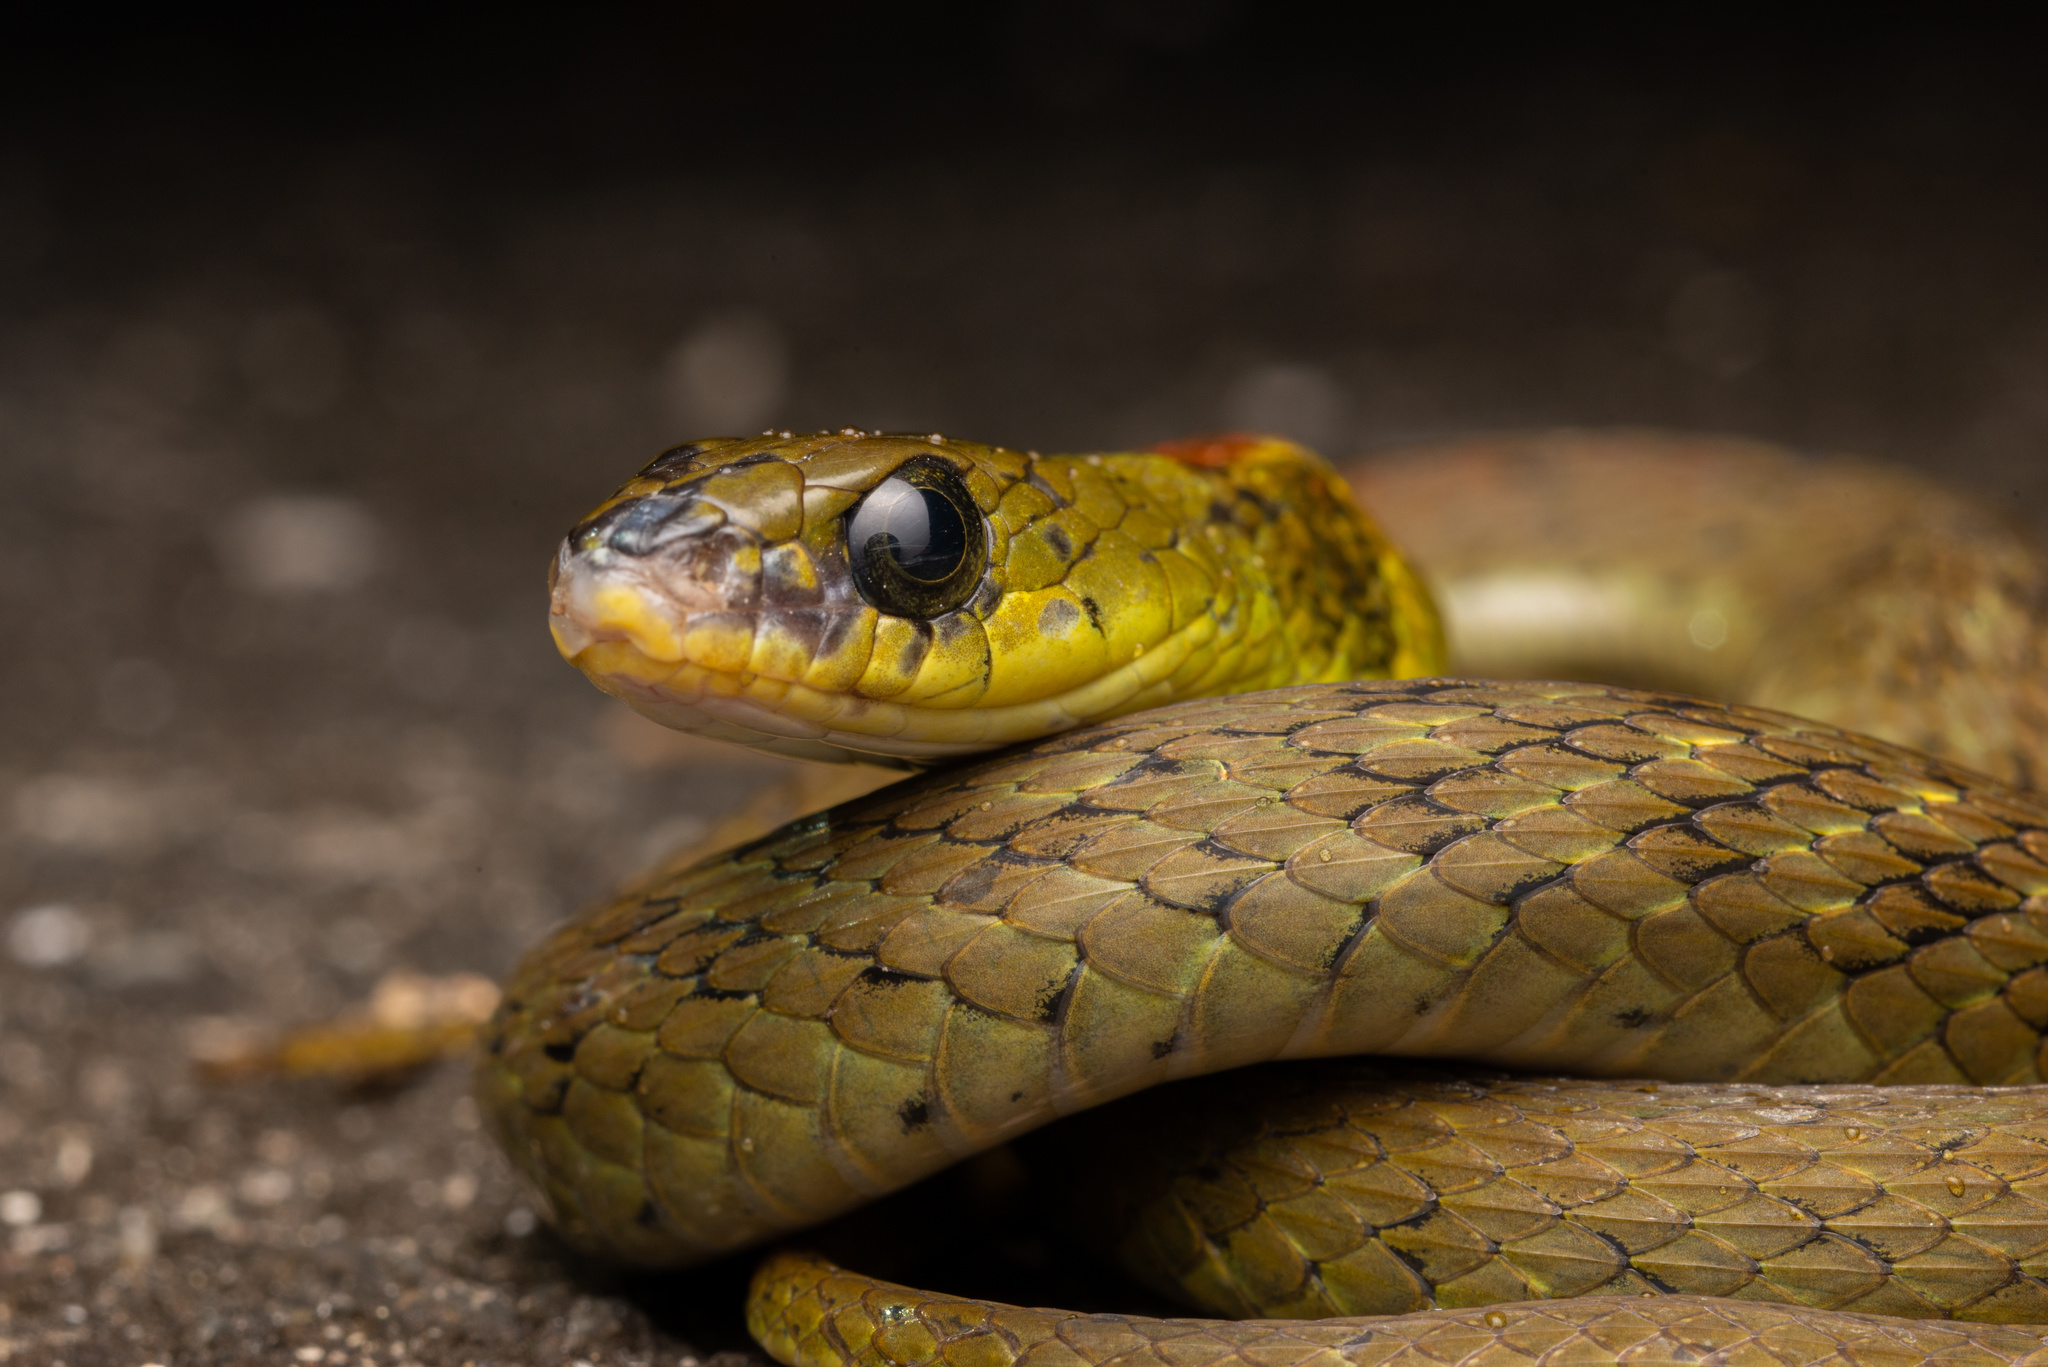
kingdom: Animalia
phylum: Chordata
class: Squamata
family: Colubridae
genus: Rhabdophis
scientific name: Rhabdophis helleri
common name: Heller’s red-necked keelback
